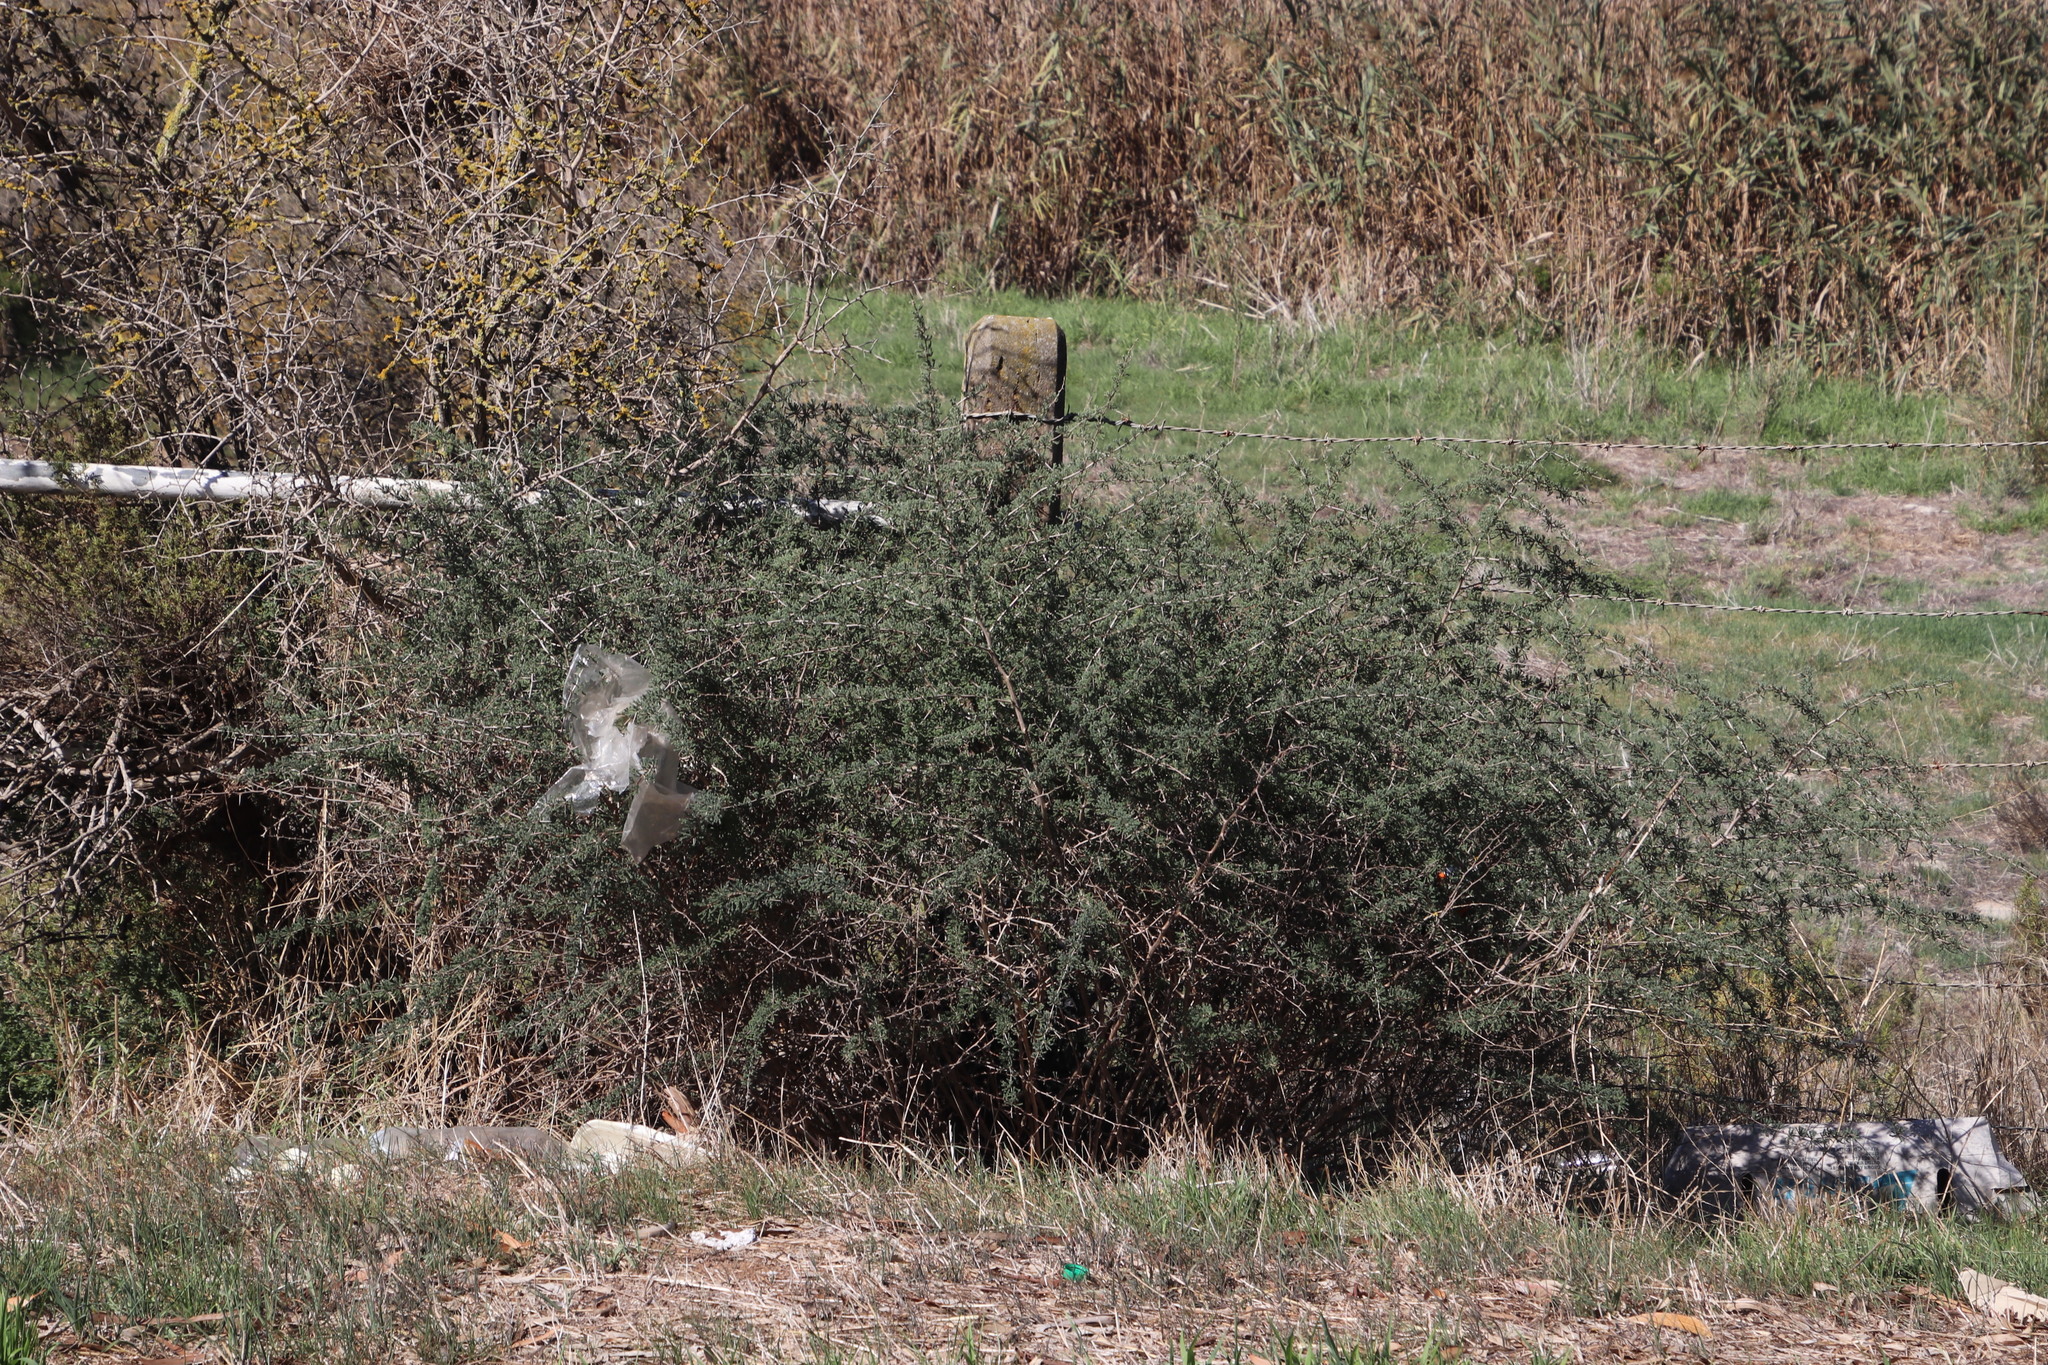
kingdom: Plantae
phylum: Tracheophyta
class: Liliopsida
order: Asparagales
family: Asparagaceae
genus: Asparagus
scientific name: Asparagus capensis
